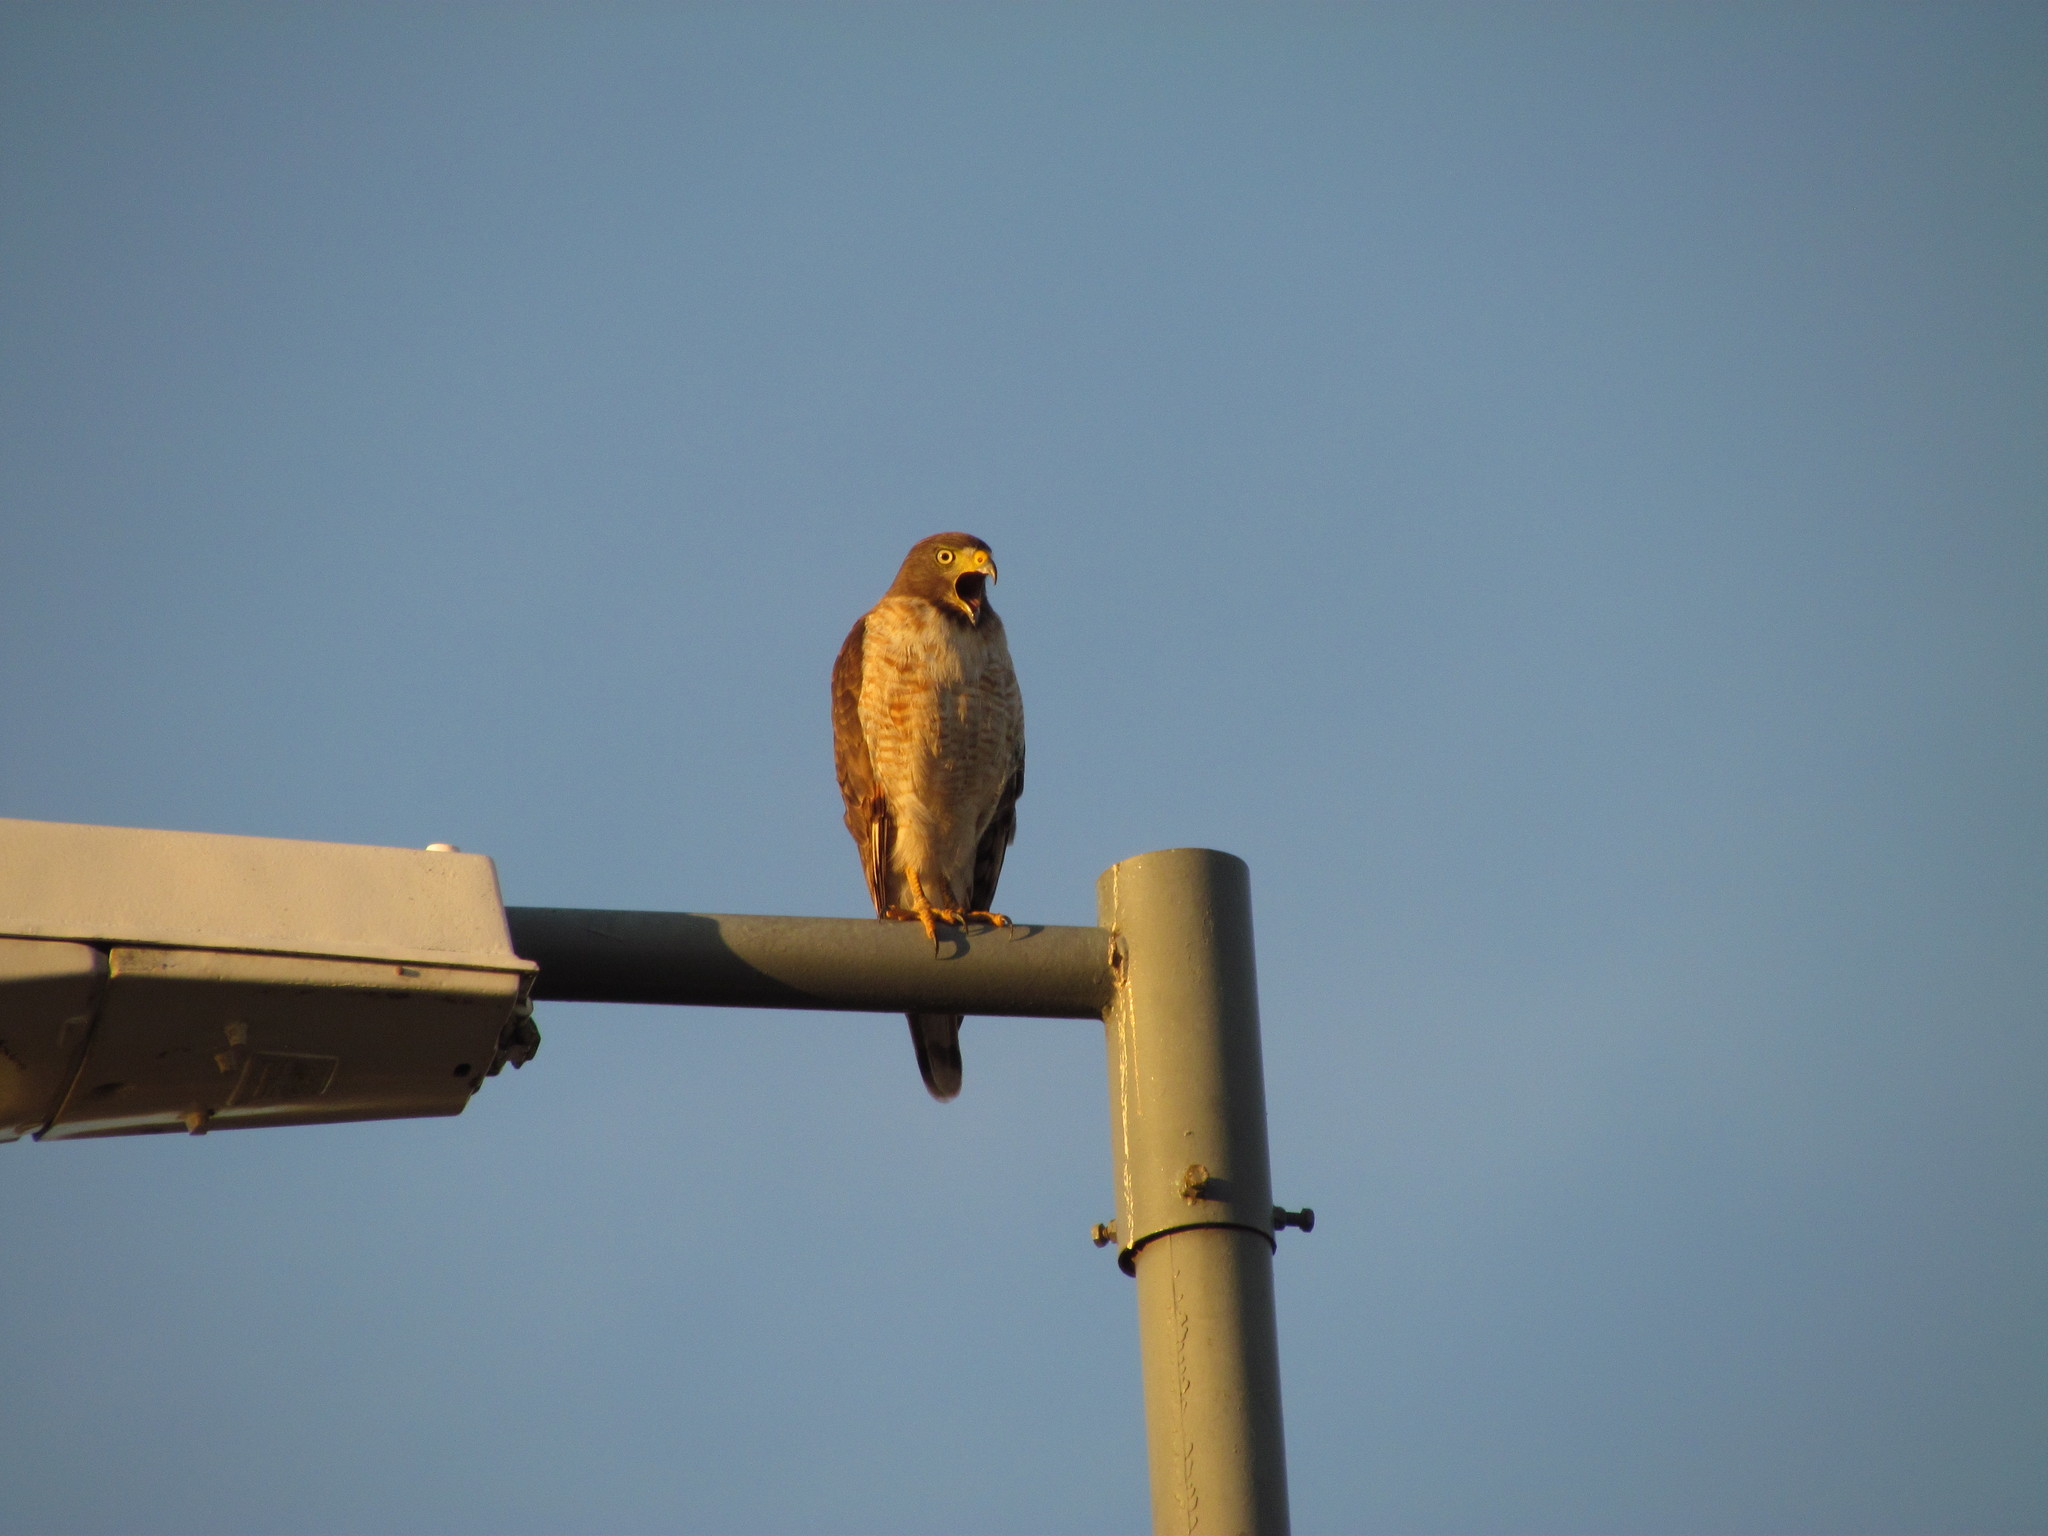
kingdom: Animalia
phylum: Chordata
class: Aves
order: Accipitriformes
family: Accipitridae
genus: Rupornis
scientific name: Rupornis magnirostris
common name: Roadside hawk
